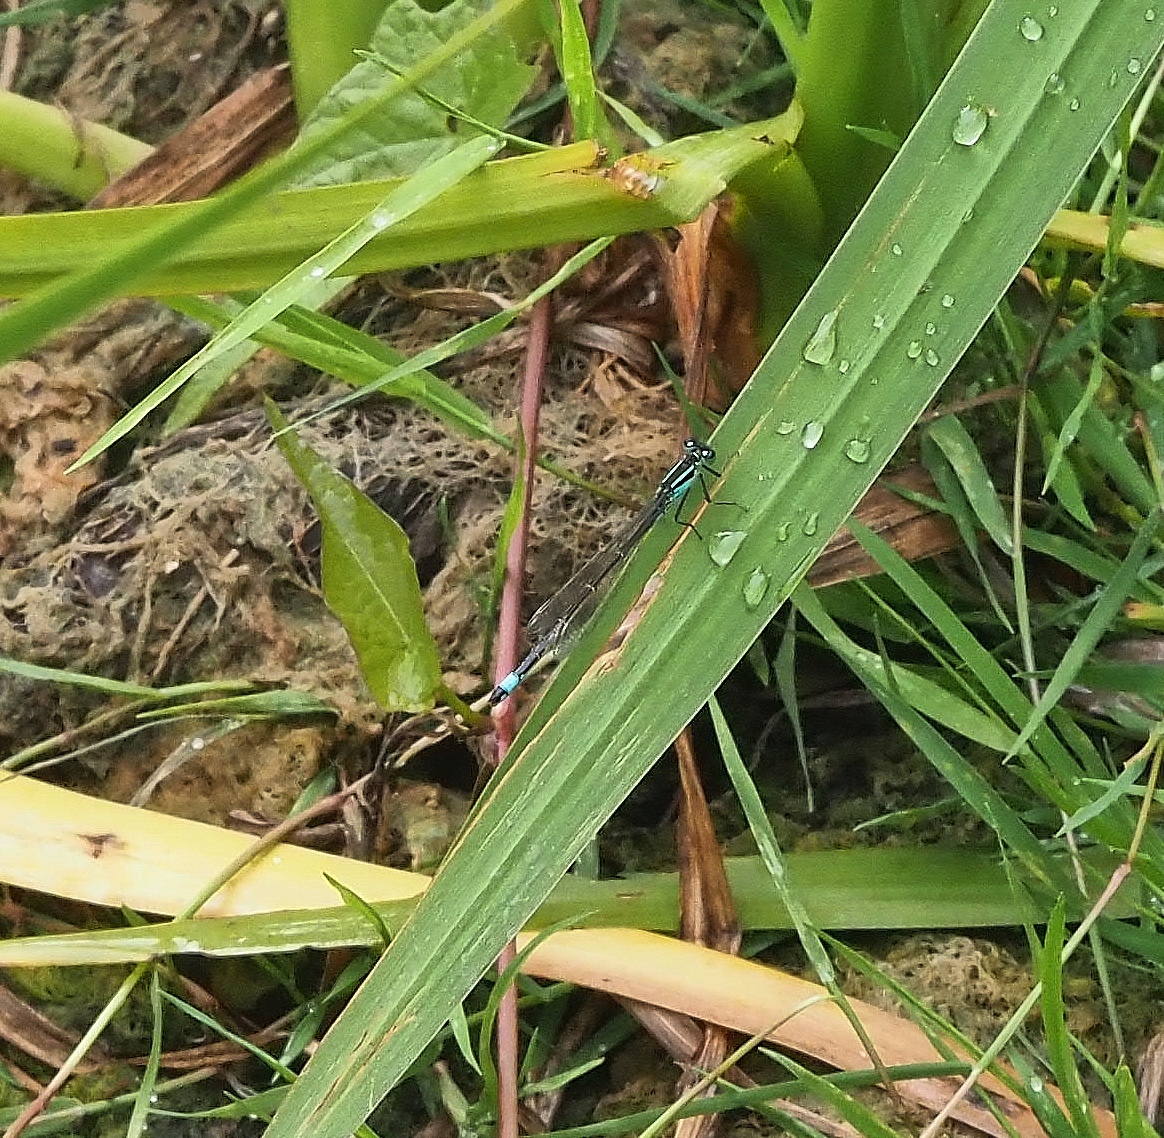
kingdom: Animalia
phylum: Arthropoda
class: Insecta
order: Odonata
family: Coenagrionidae
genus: Ischnura
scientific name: Ischnura elegans
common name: Blue-tailed damselfly
